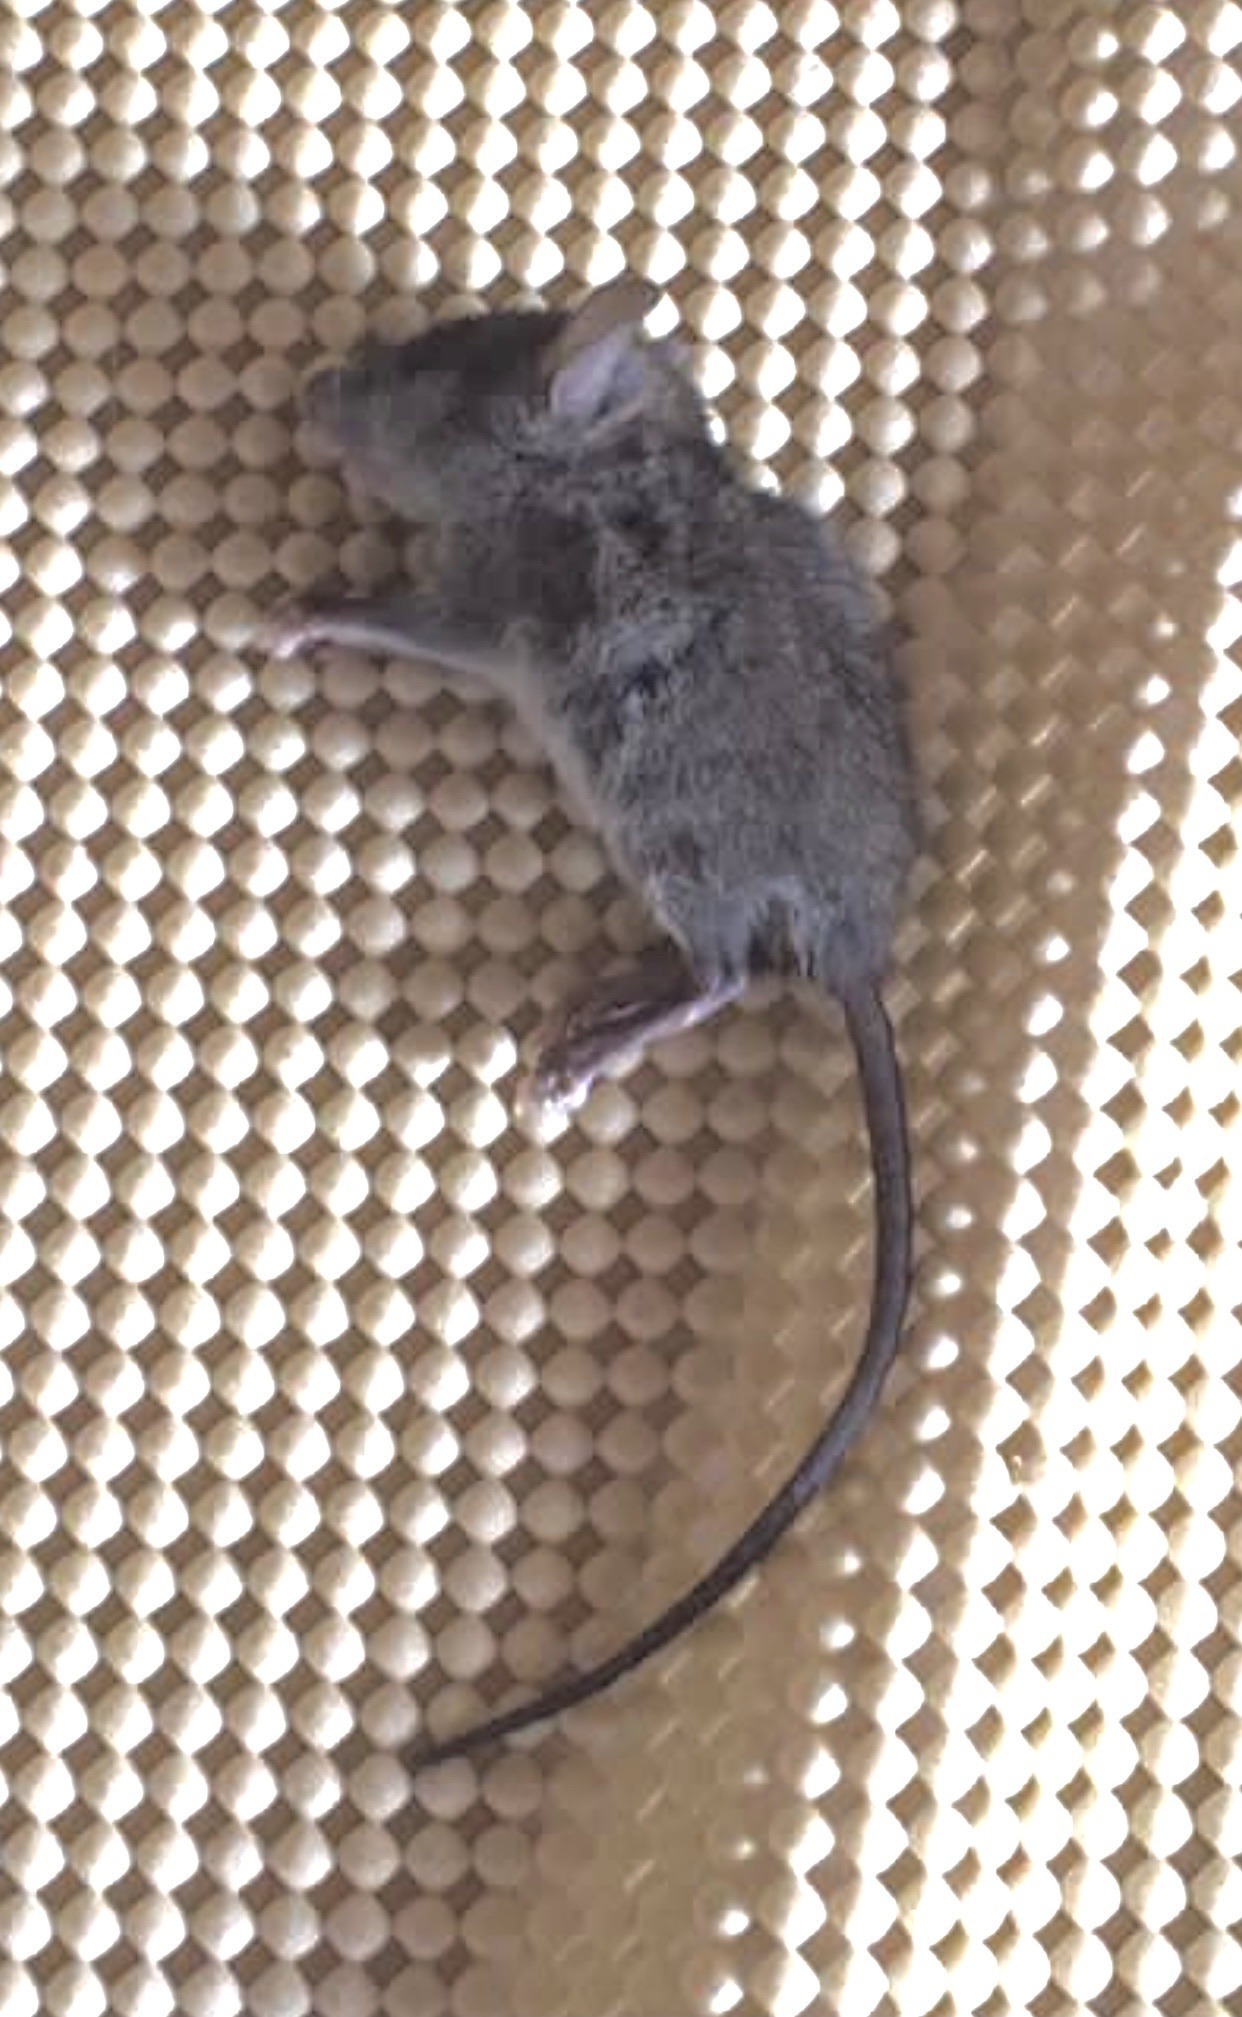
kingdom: Animalia
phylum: Chordata
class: Mammalia
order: Rodentia
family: Muridae
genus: Mus
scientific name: Mus musculus
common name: House mouse
